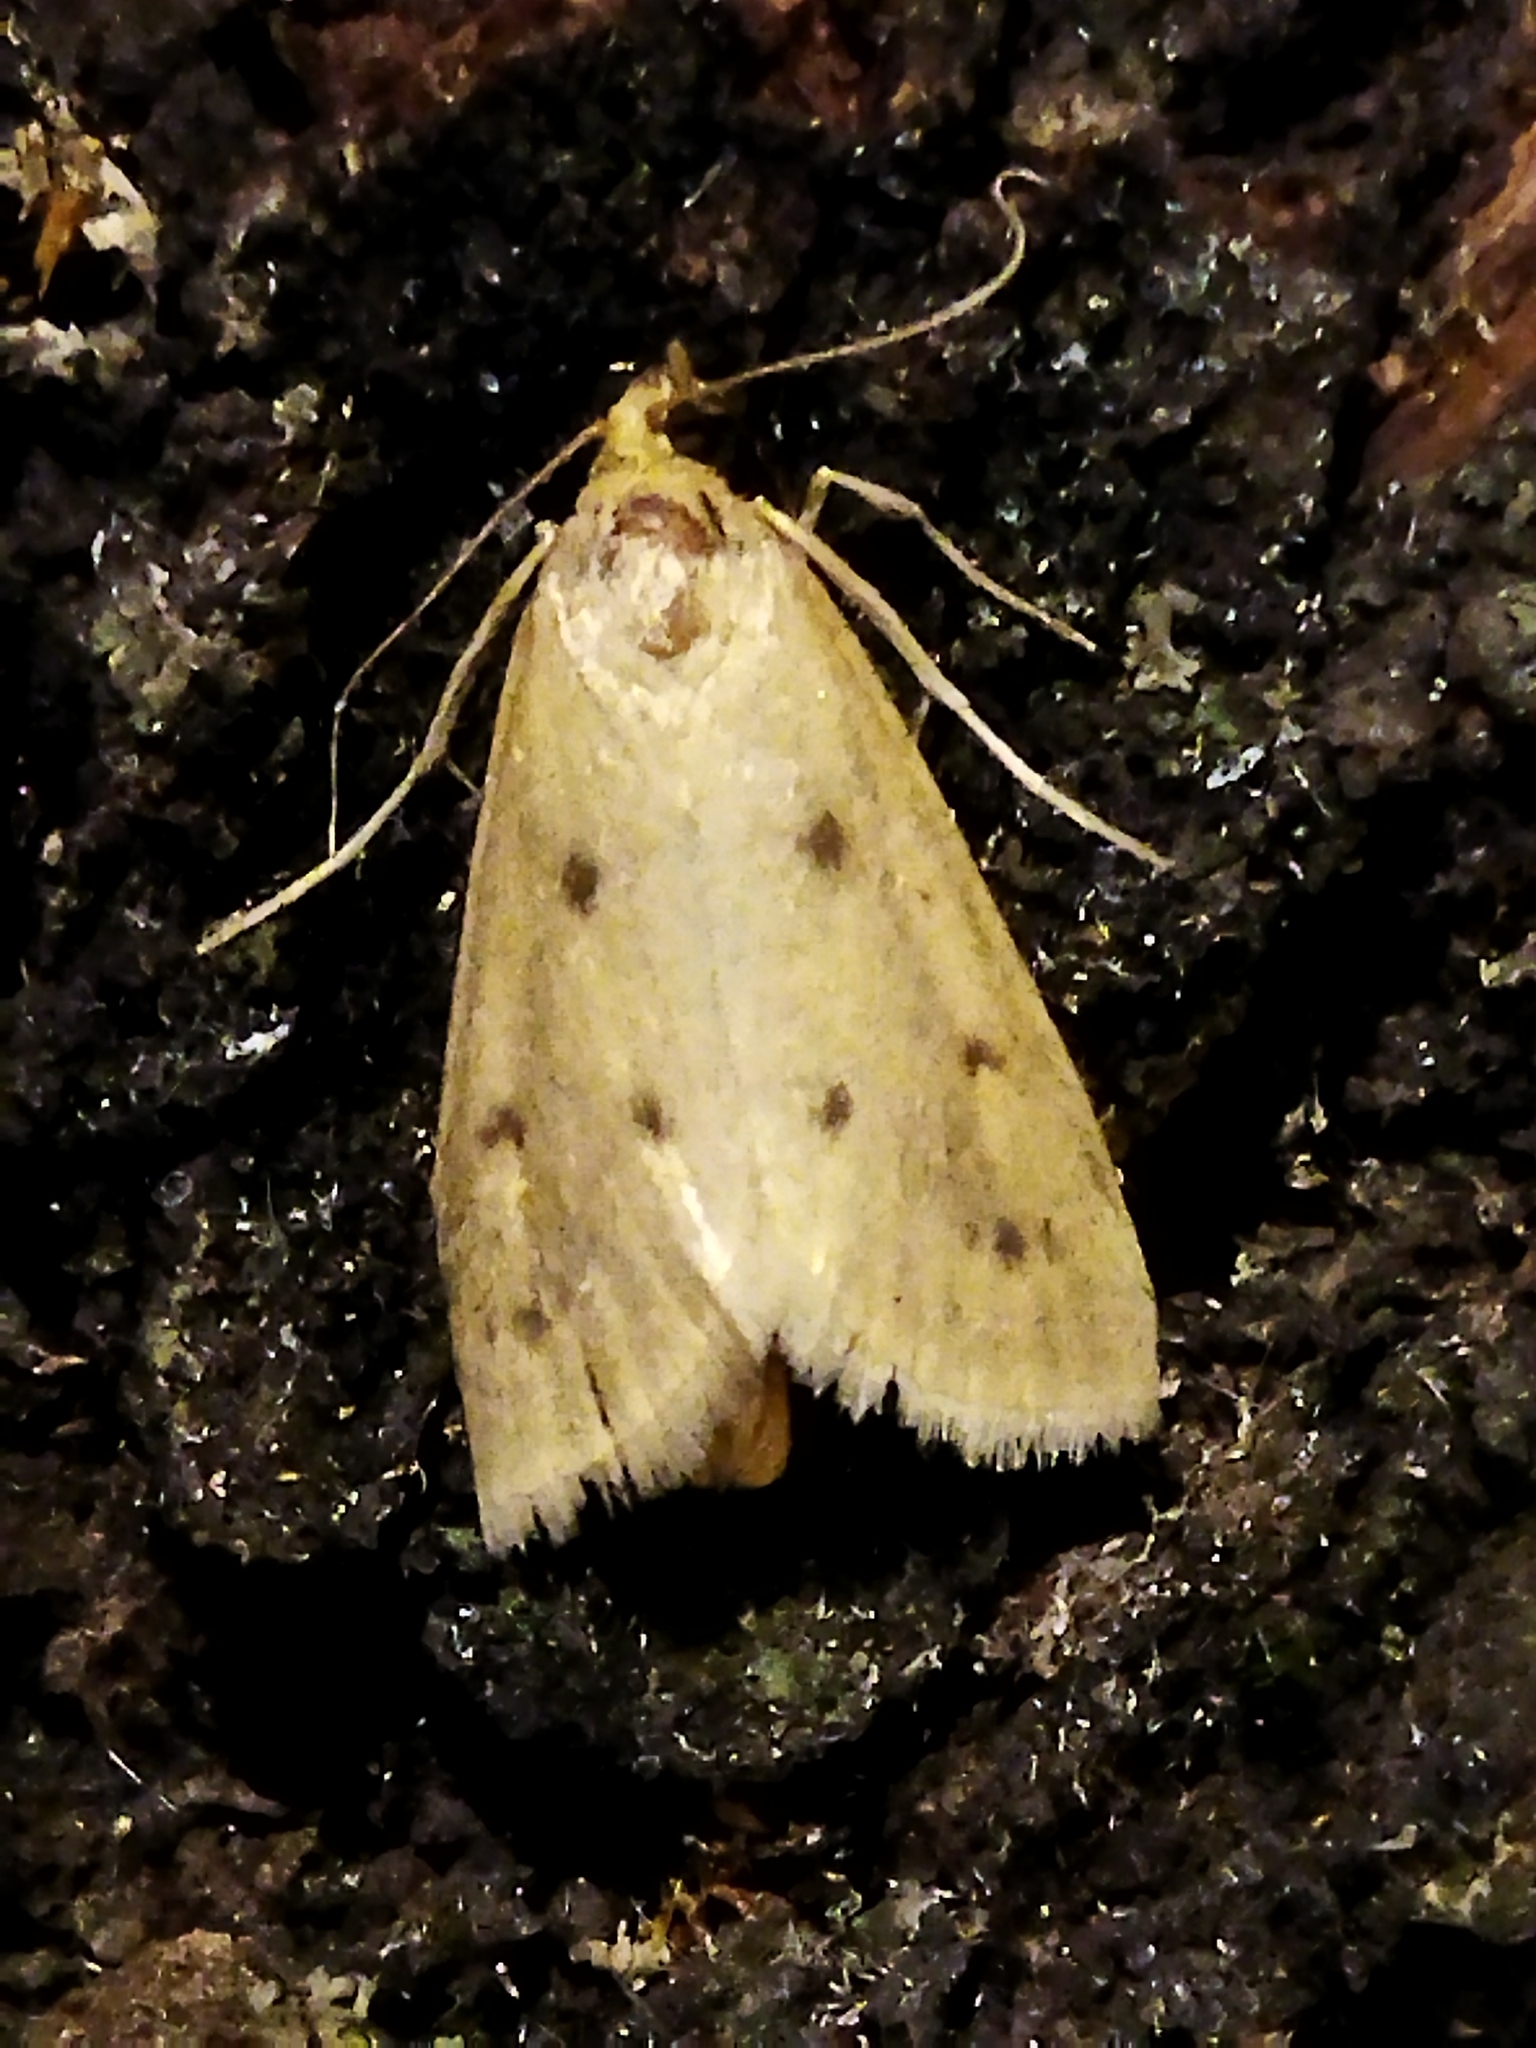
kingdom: Animalia
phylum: Arthropoda
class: Insecta
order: Lepidoptera
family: Crambidae
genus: Achyra
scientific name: Achyra nudalis
